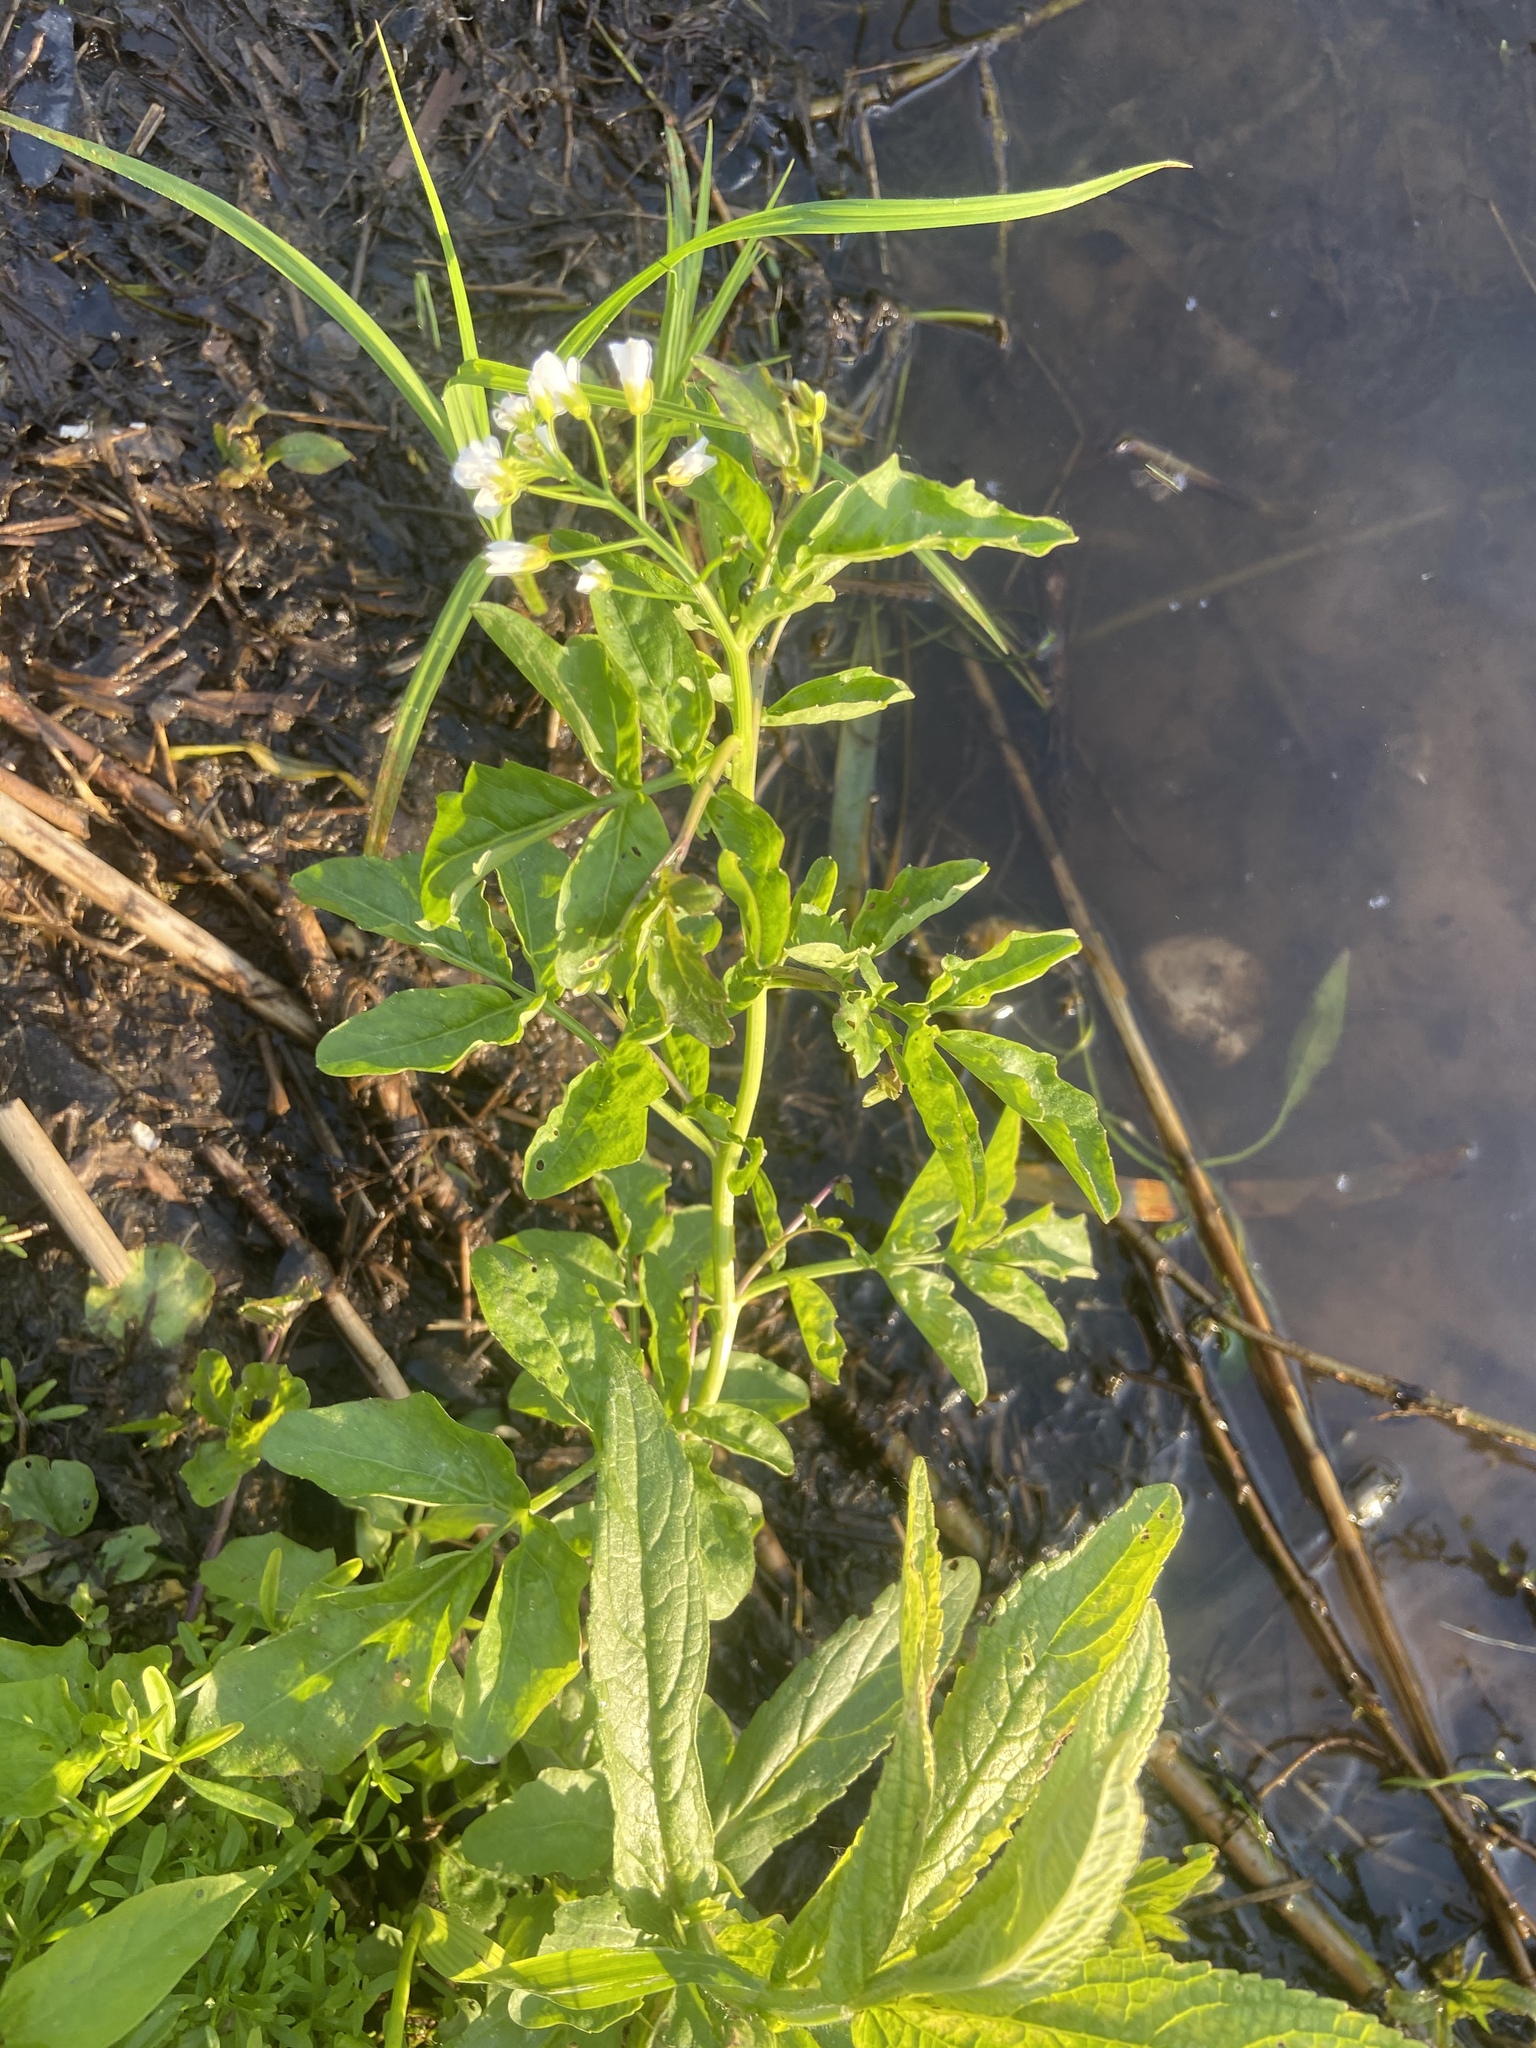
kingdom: Plantae
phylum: Tracheophyta
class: Magnoliopsida
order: Brassicales
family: Brassicaceae
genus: Cardamine
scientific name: Cardamine amara
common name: Large bitter-cress
